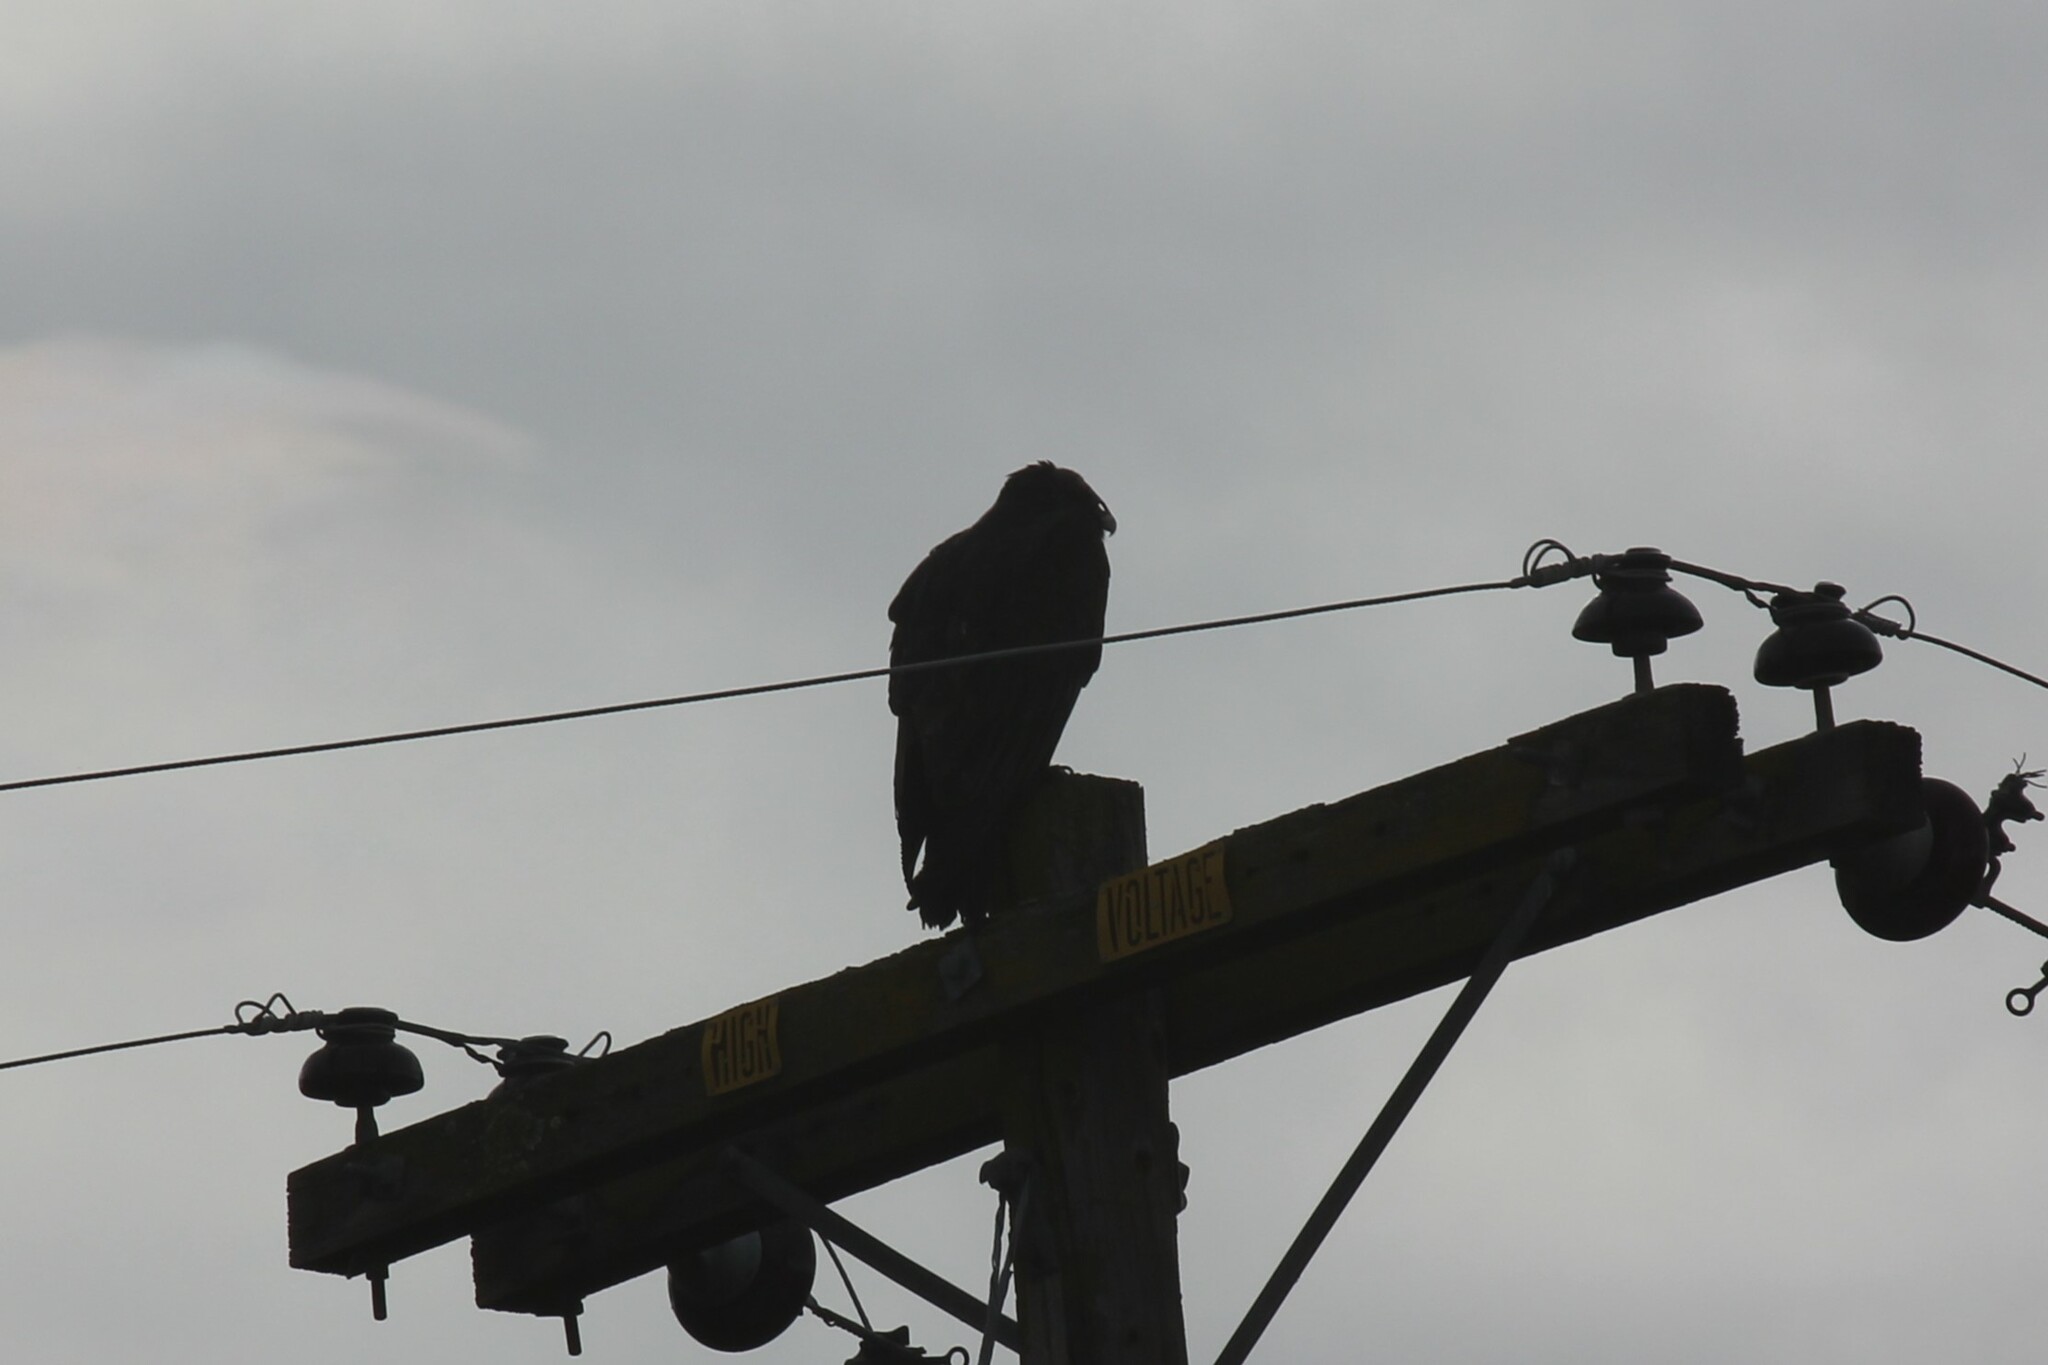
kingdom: Animalia
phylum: Chordata
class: Aves
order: Accipitriformes
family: Cathartidae
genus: Cathartes
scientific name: Cathartes aura
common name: Turkey vulture
